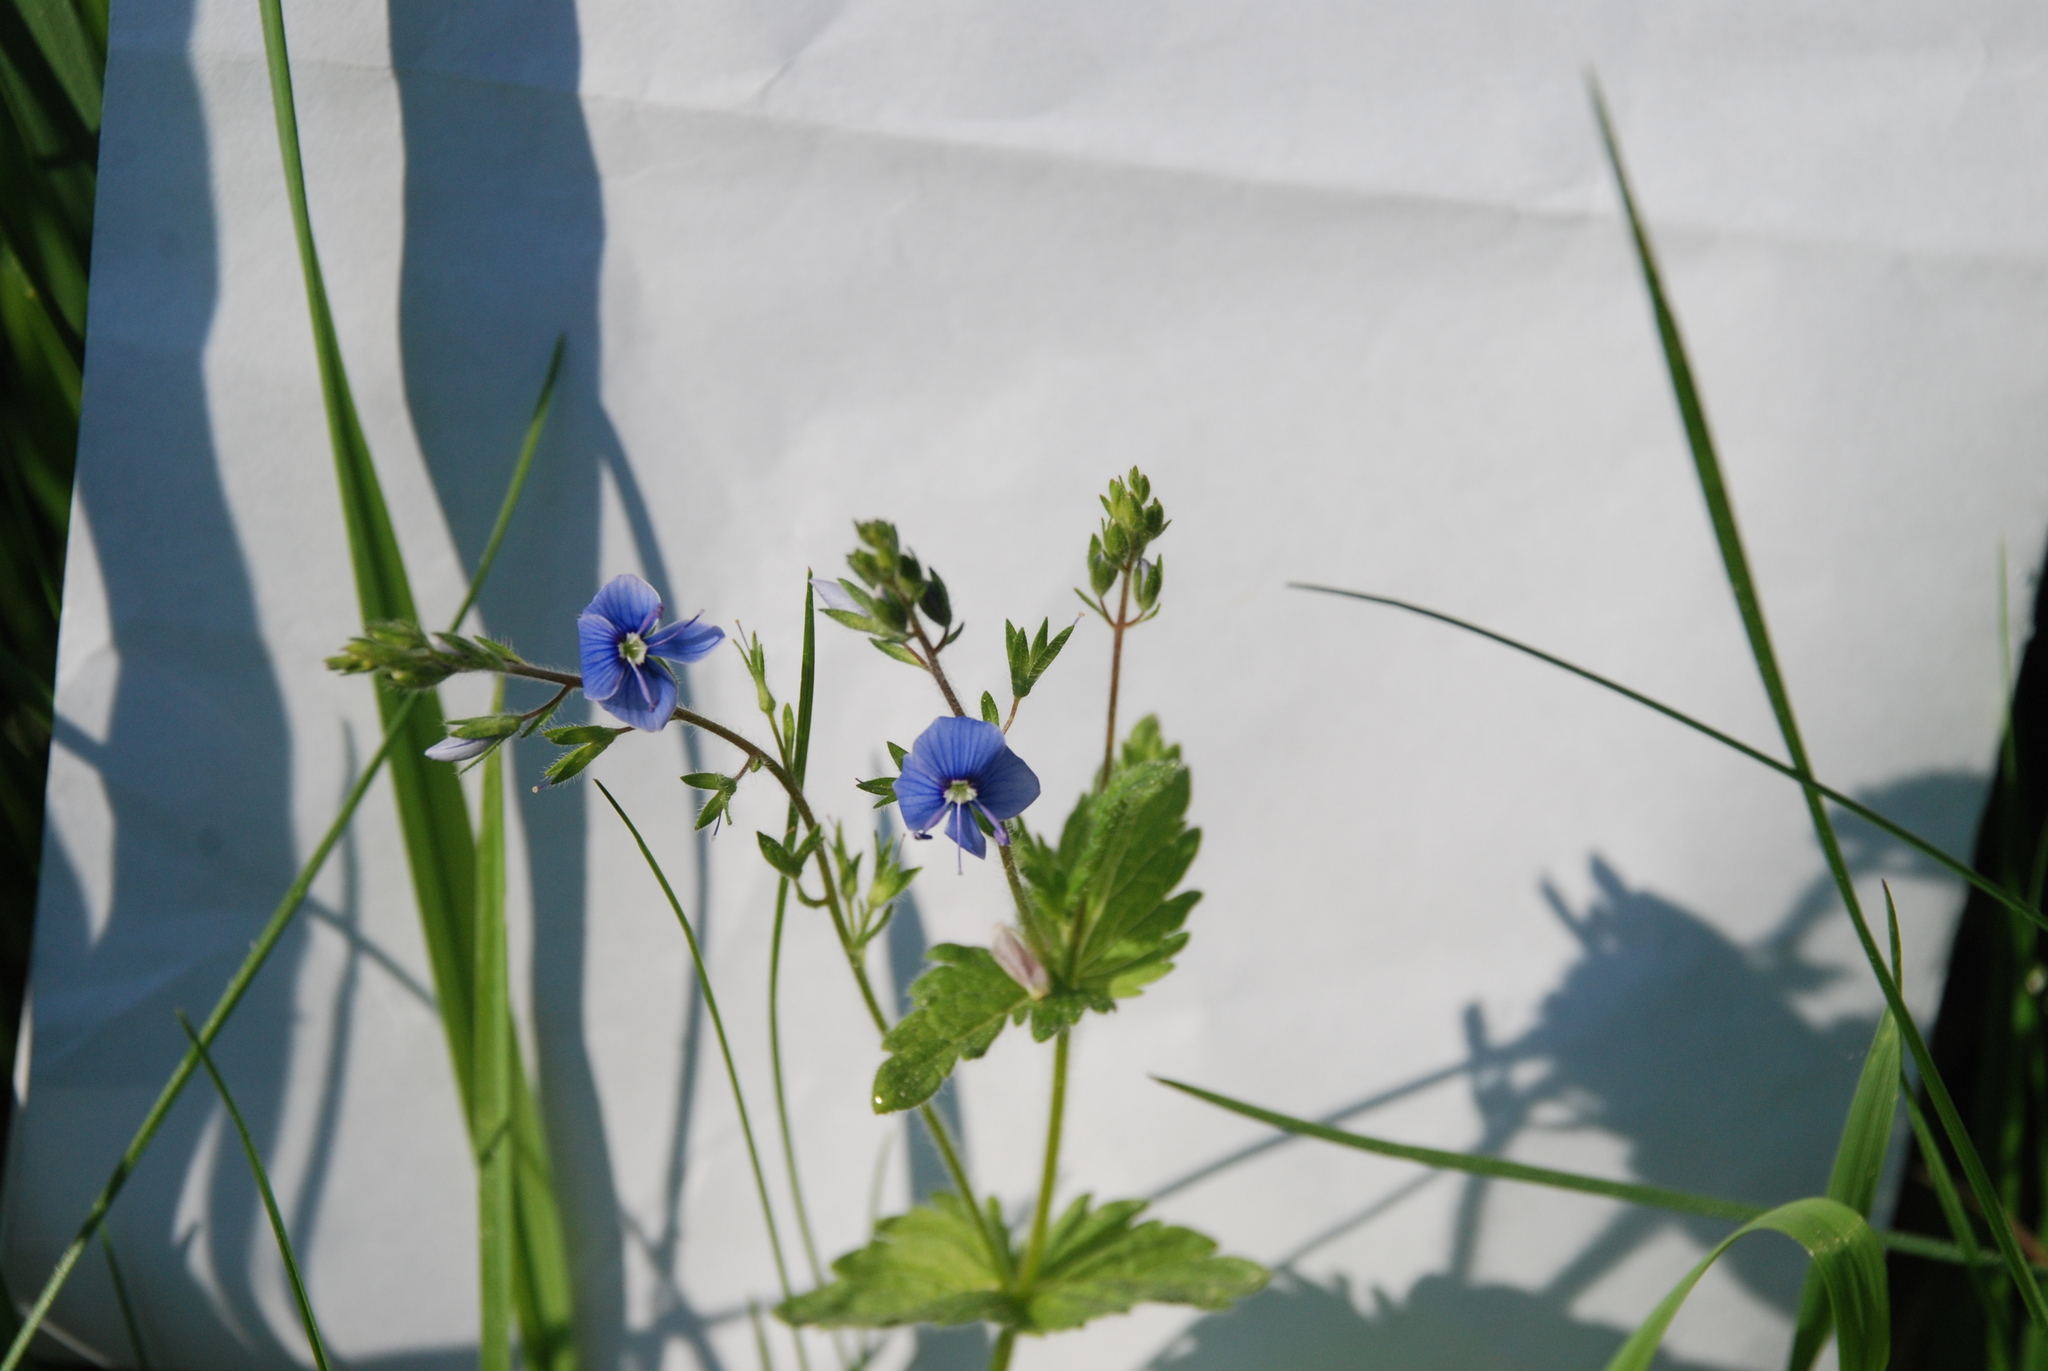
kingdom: Plantae
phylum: Tracheophyta
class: Magnoliopsida
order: Lamiales
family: Plantaginaceae
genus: Veronica
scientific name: Veronica chamaedrys
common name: Germander speedwell
